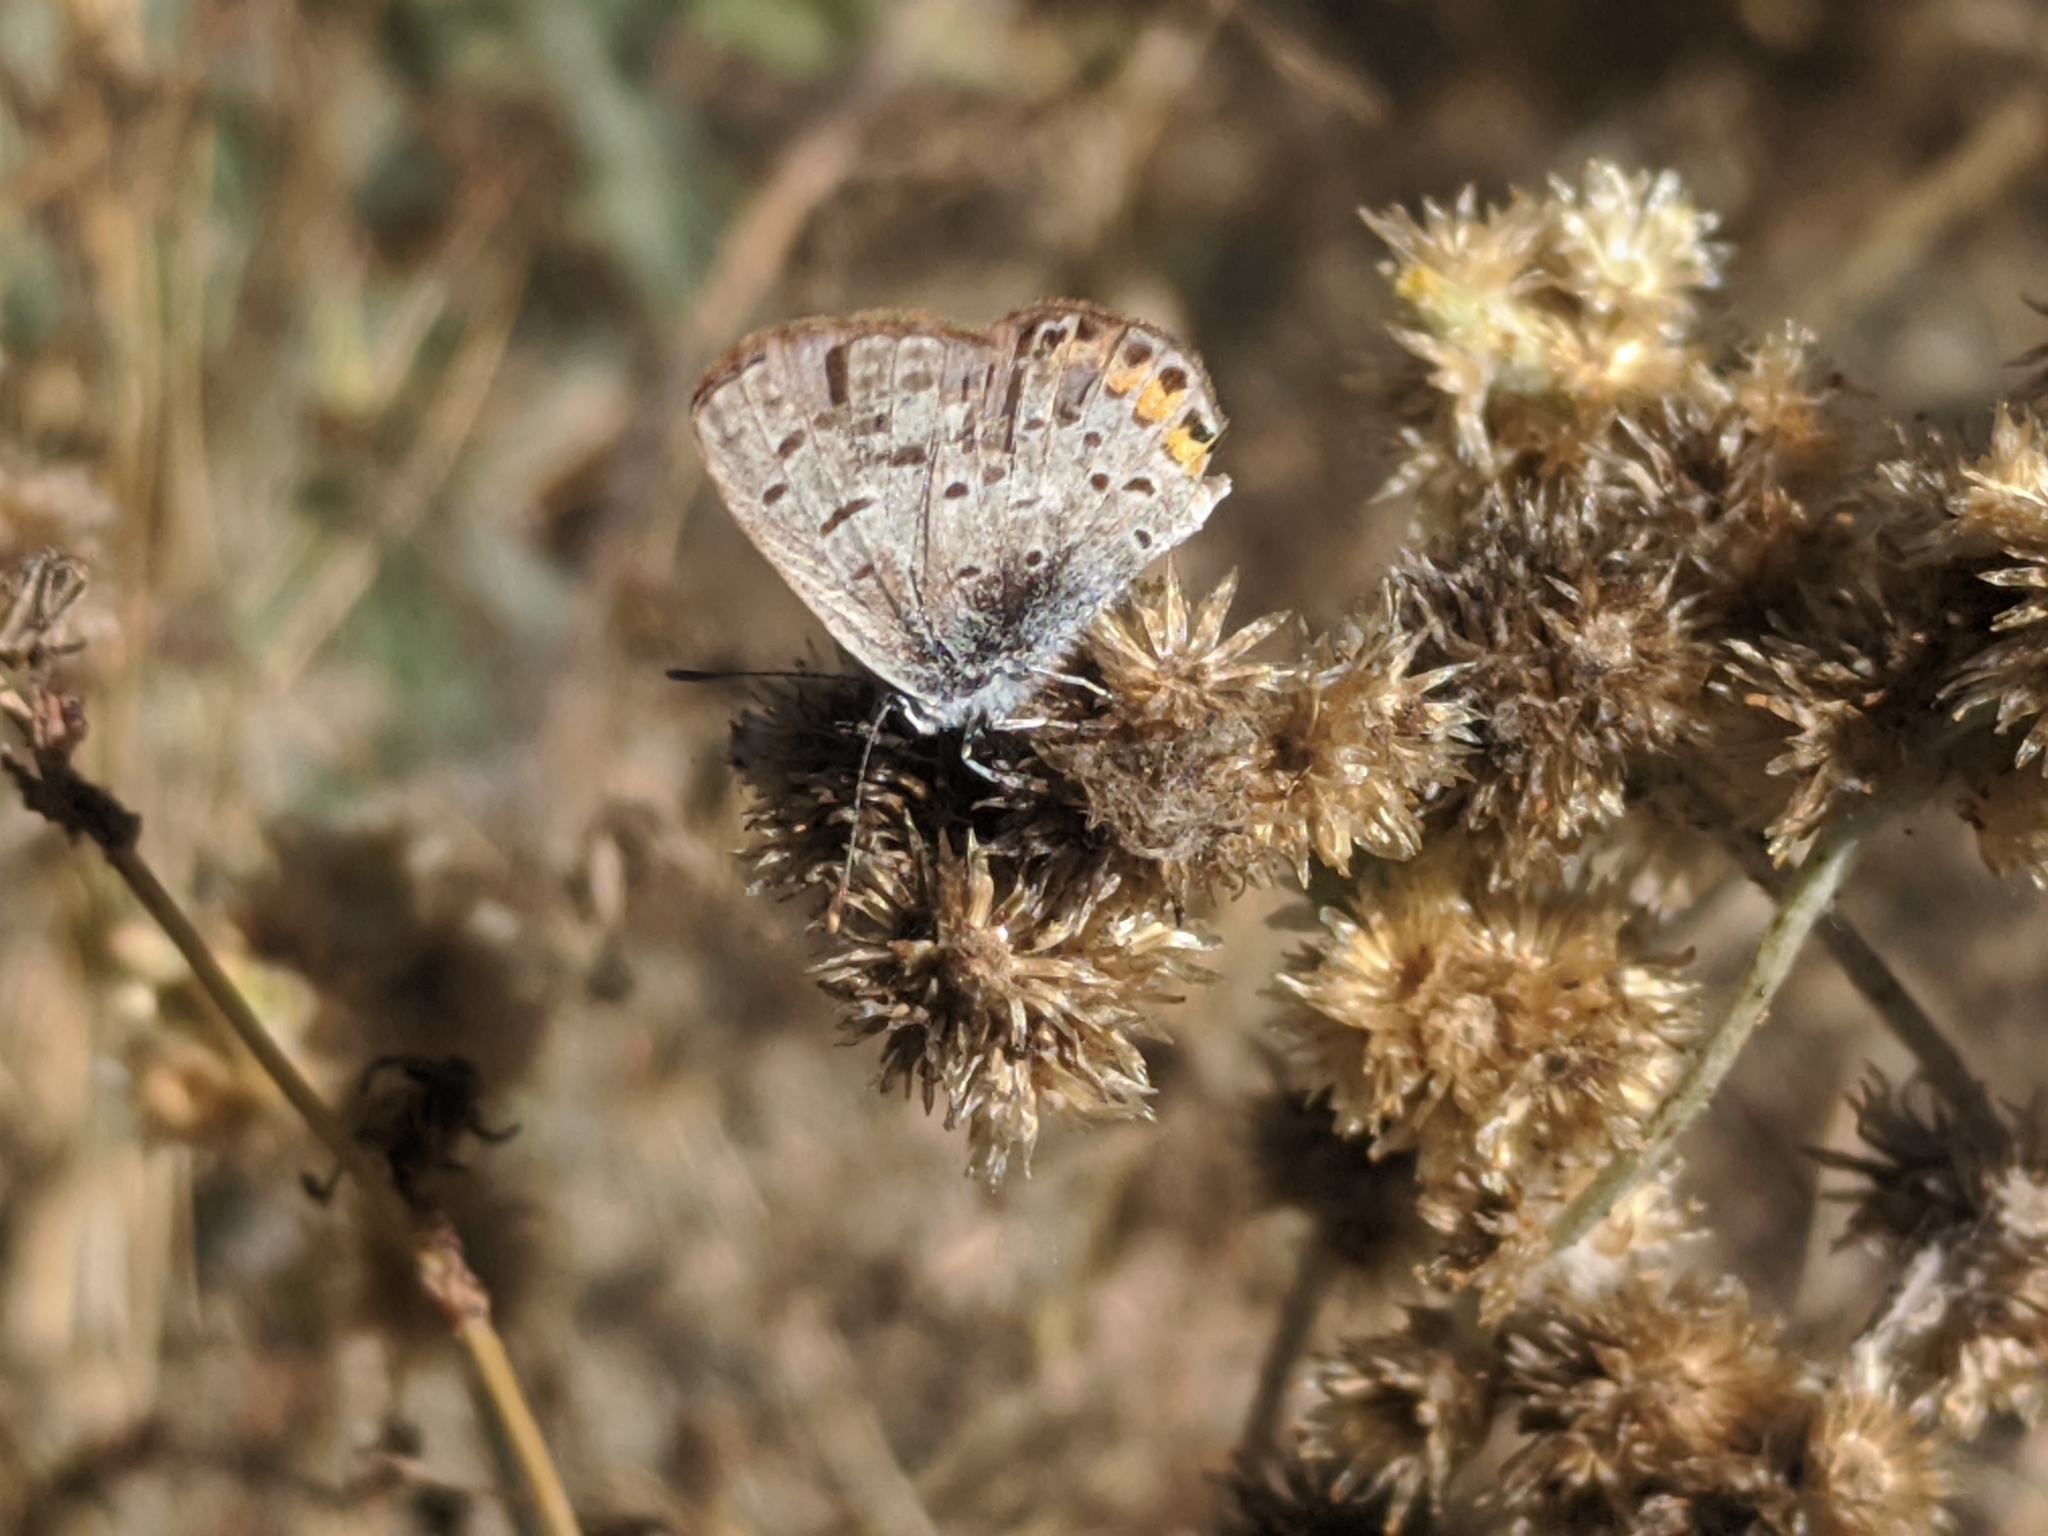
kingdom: Animalia
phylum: Arthropoda
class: Insecta
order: Lepidoptera
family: Lycaenidae
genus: Icaricia
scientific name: Icaricia acmon
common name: Acmon blue
